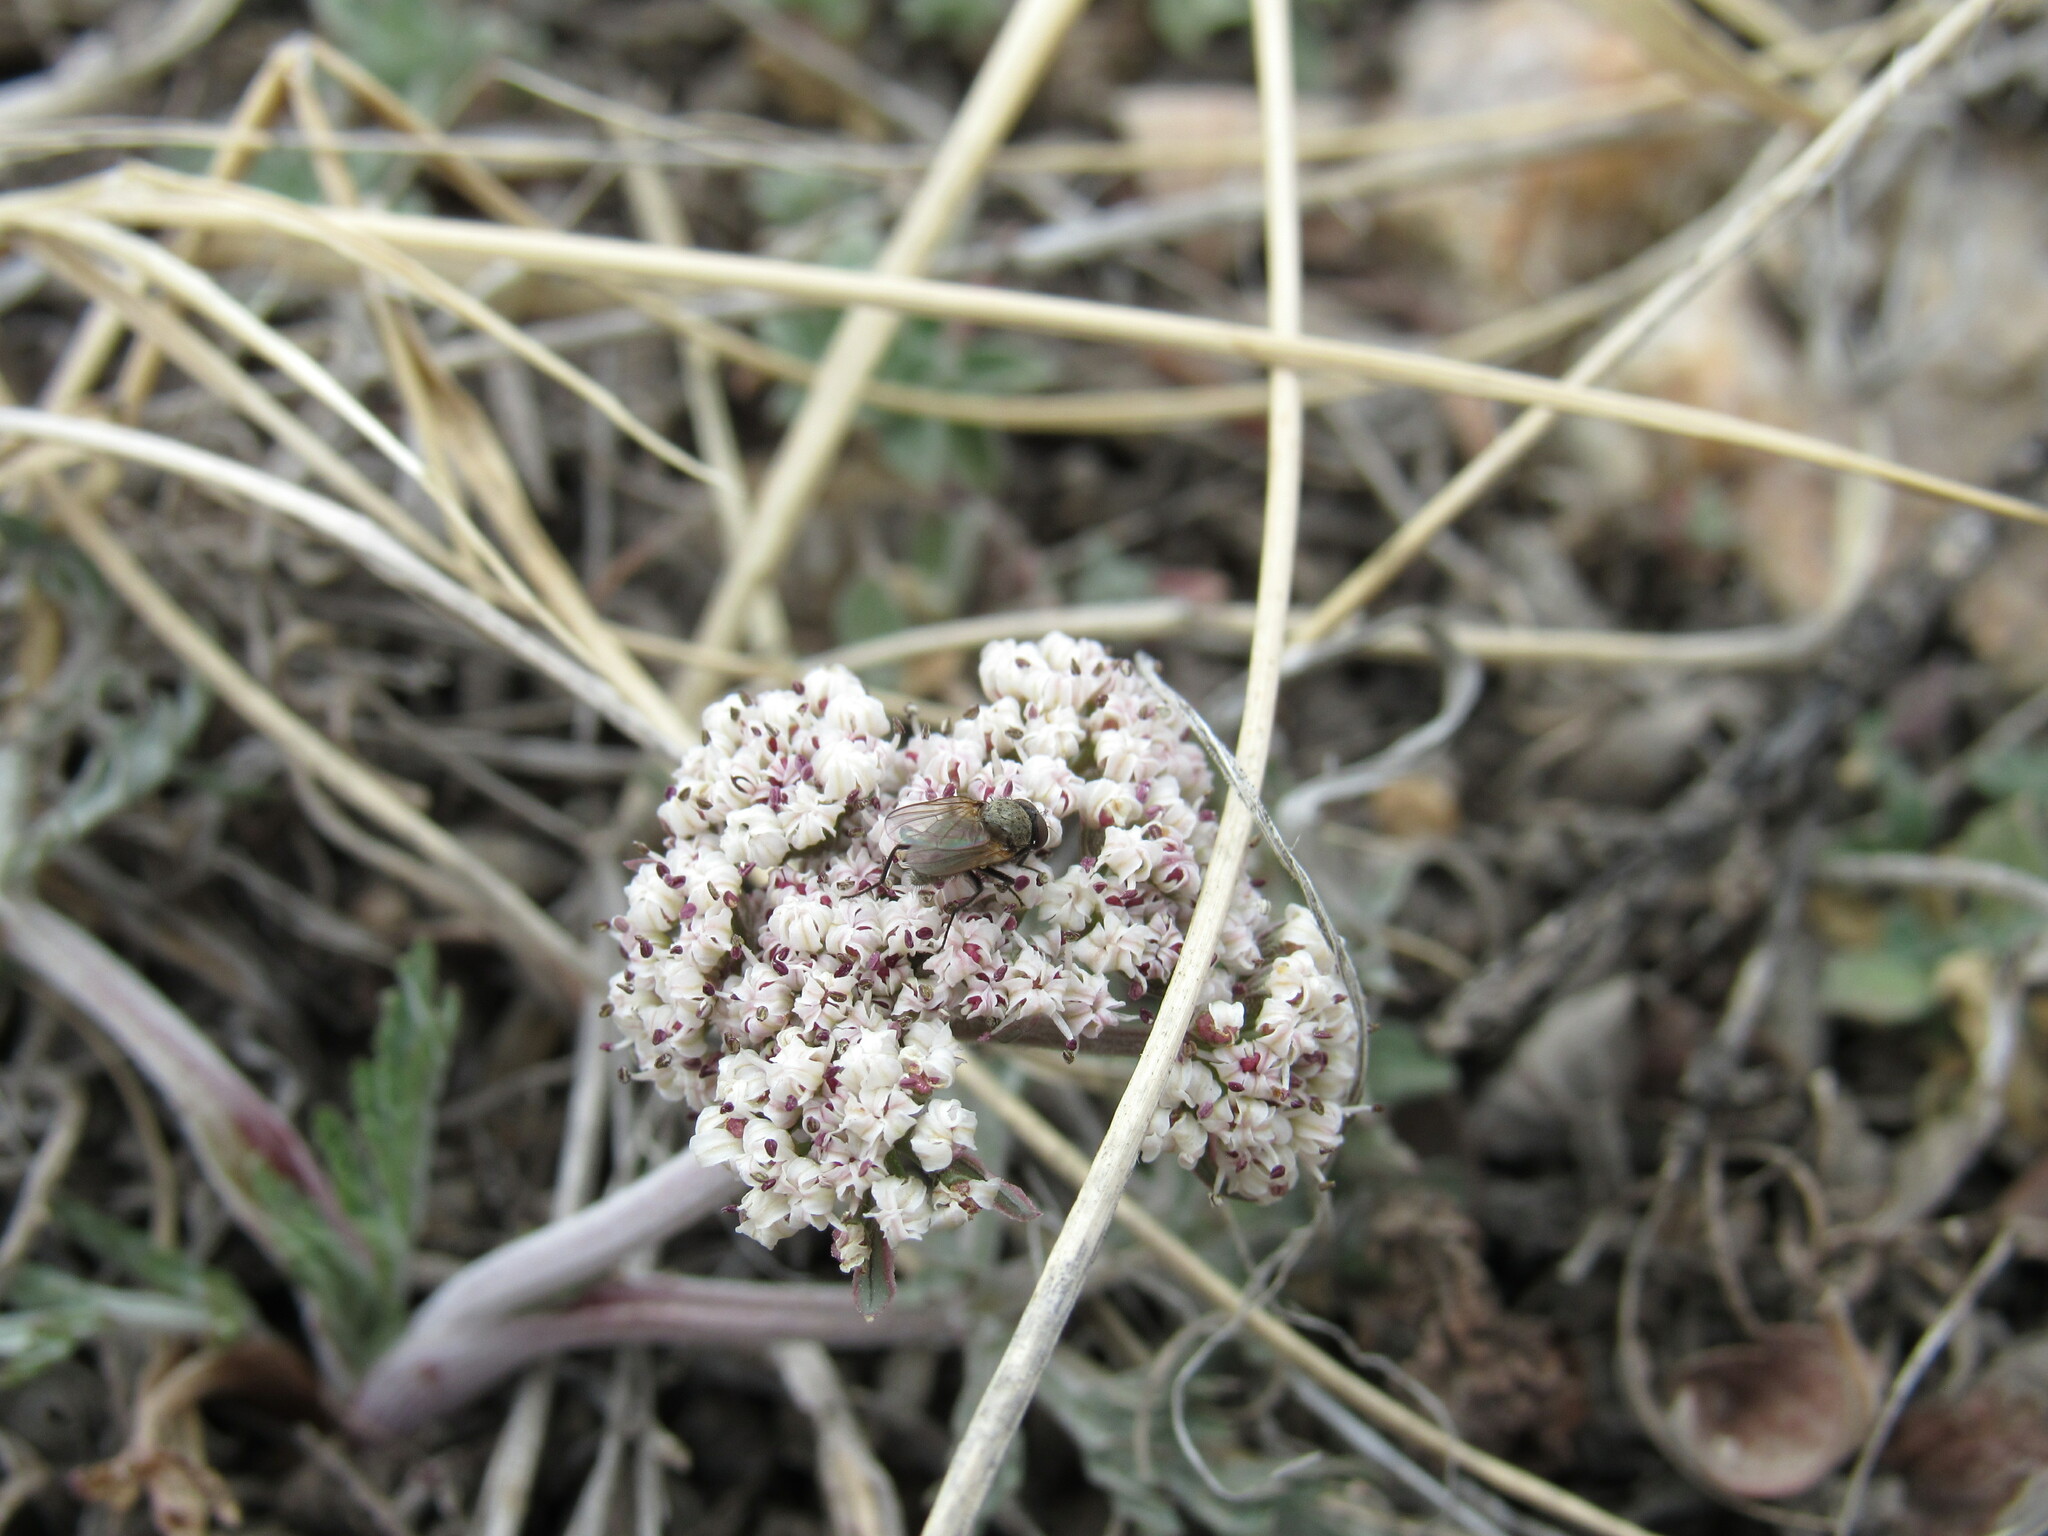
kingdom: Plantae
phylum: Tracheophyta
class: Magnoliopsida
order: Apiales
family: Apiaceae
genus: Lomatium
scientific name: Lomatium orientale
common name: Eastern cous
